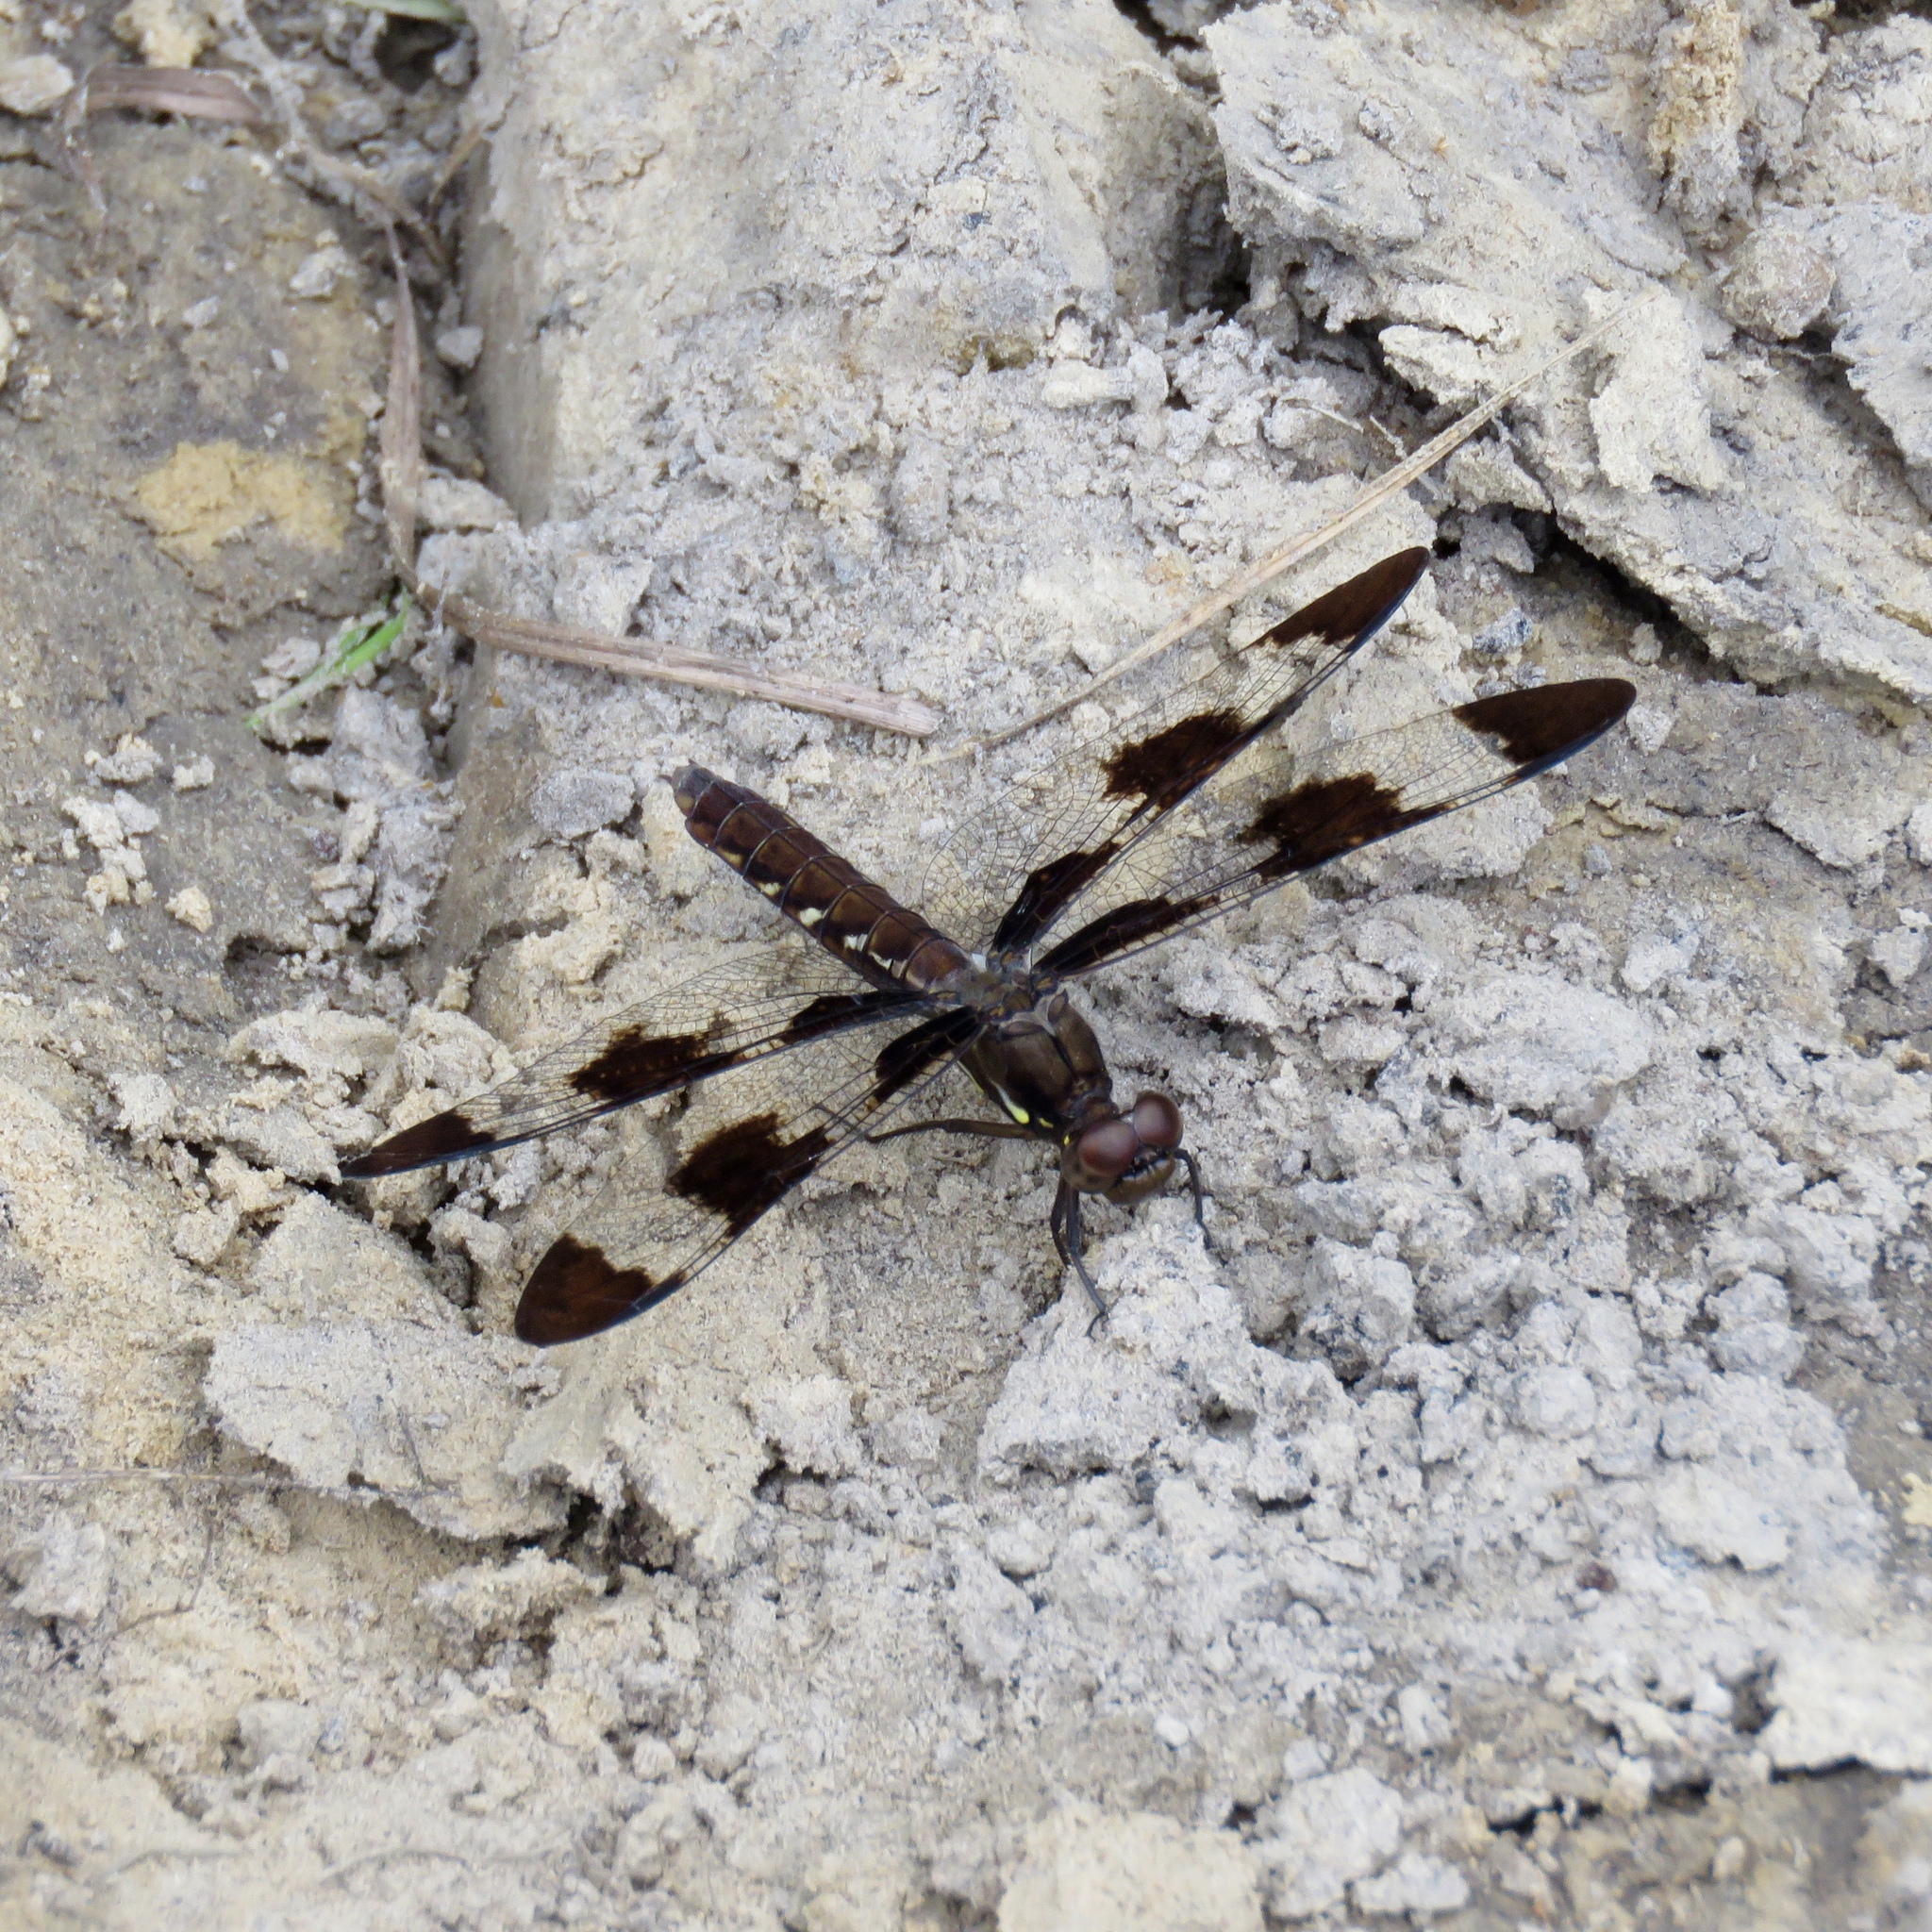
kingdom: Animalia
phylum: Arthropoda
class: Insecta
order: Odonata
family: Libellulidae
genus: Plathemis
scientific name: Plathemis lydia
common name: Common whitetail
